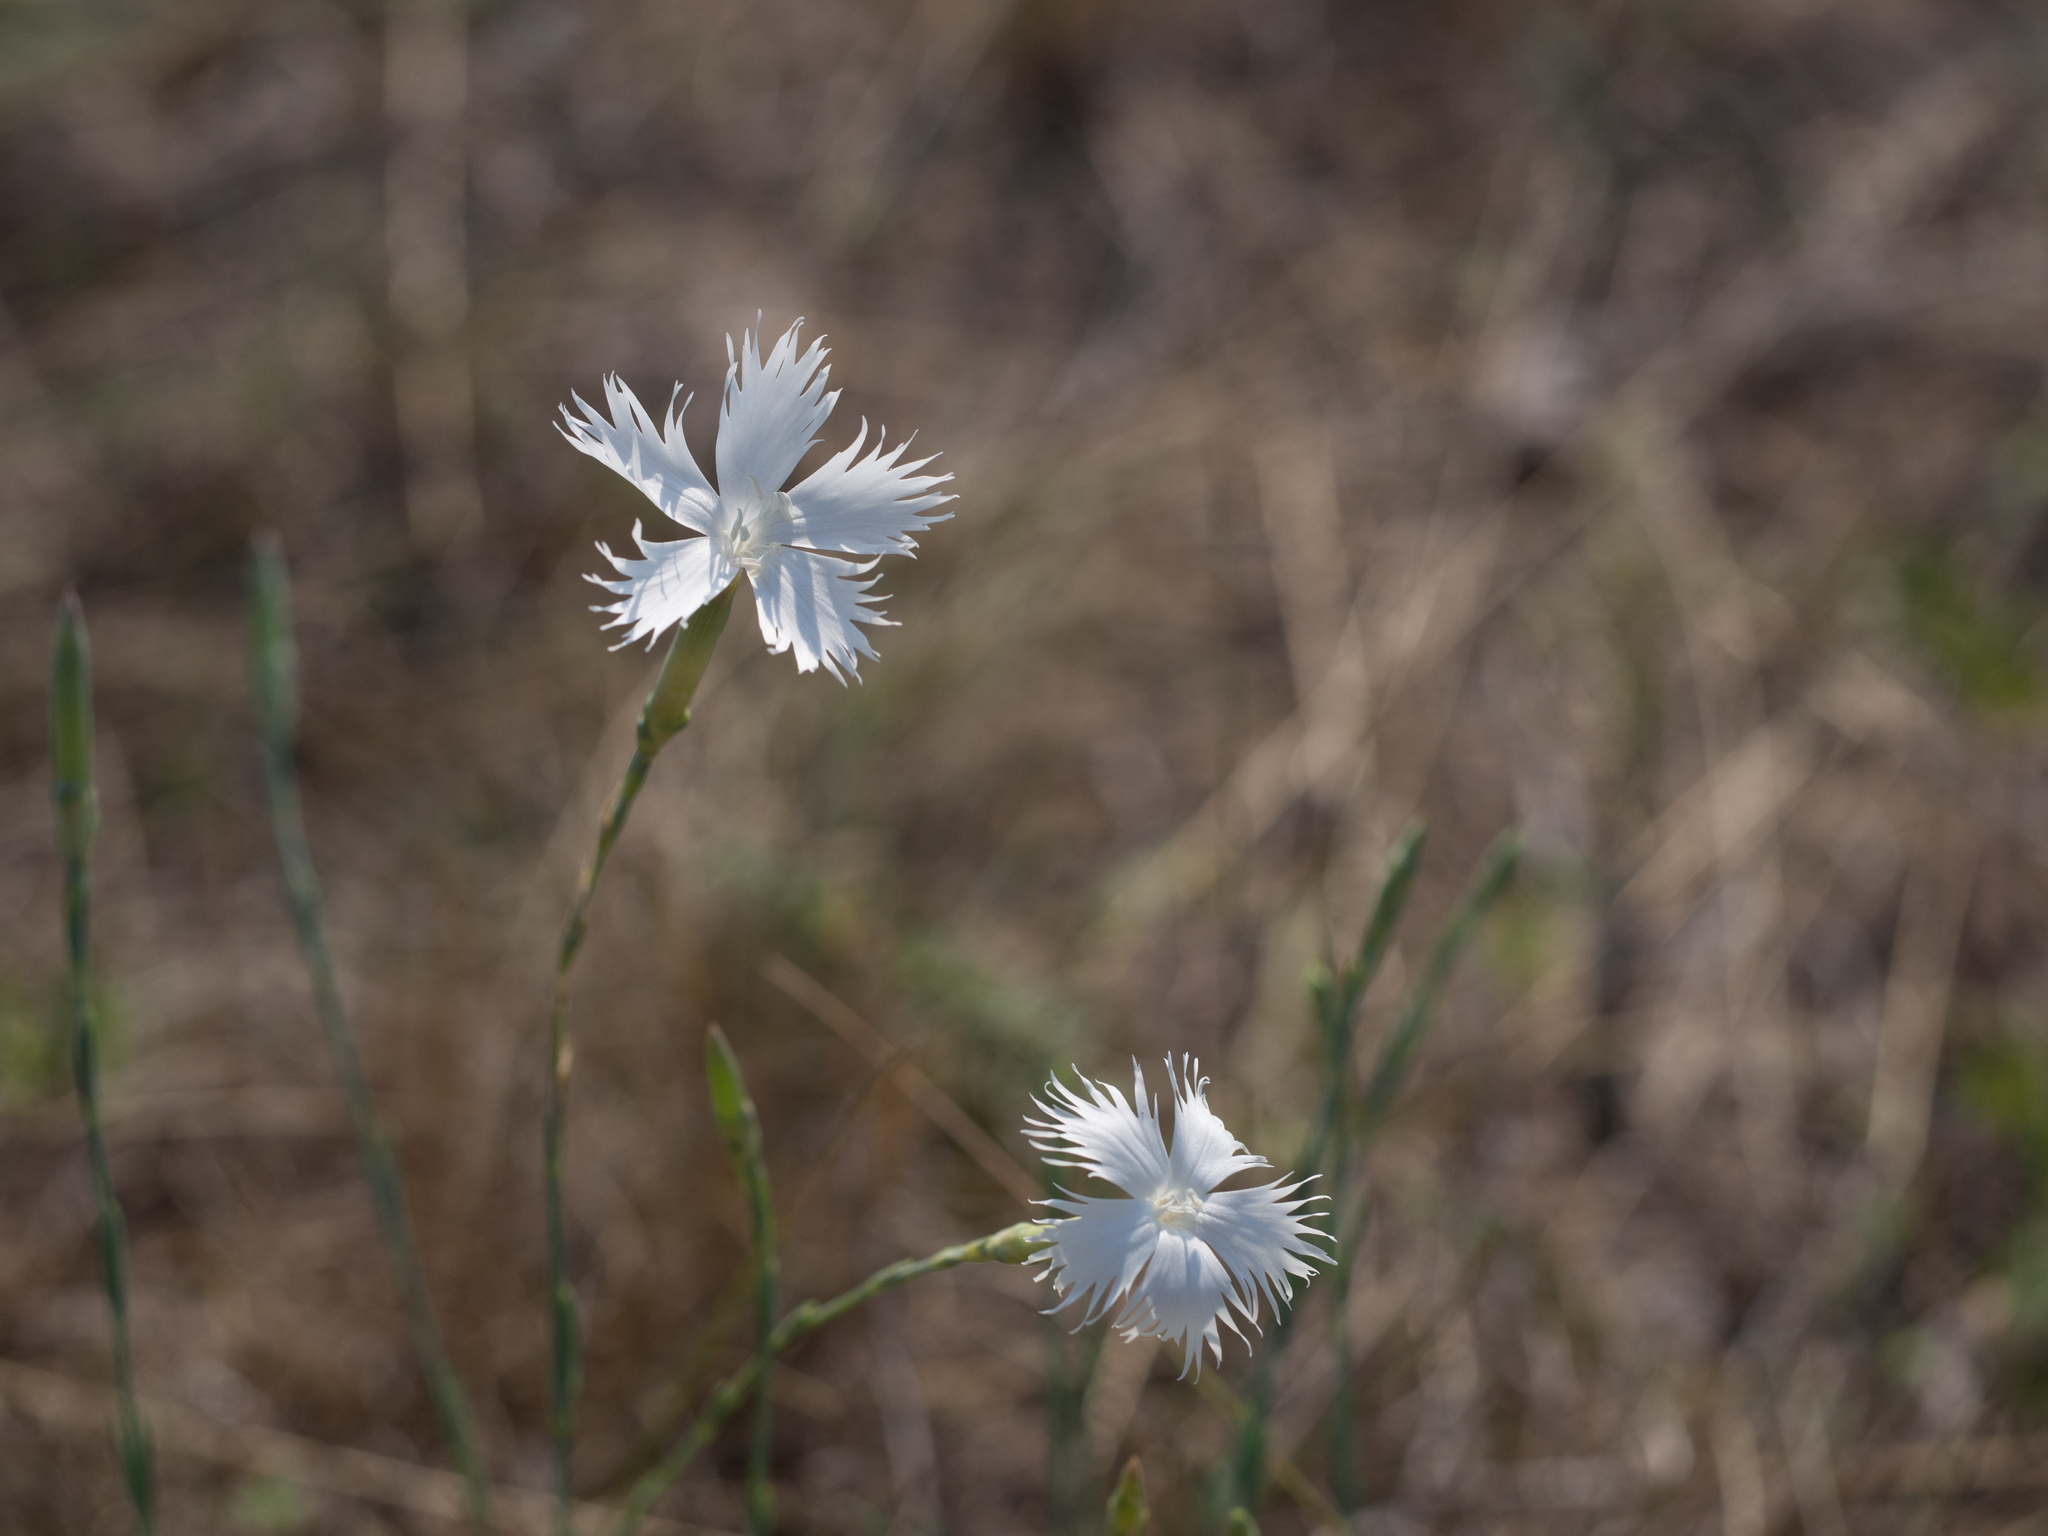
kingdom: Plantae
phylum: Tracheophyta
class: Magnoliopsida
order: Caryophyllales
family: Caryophyllaceae
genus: Dianthus
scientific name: Dianthus serotinus
